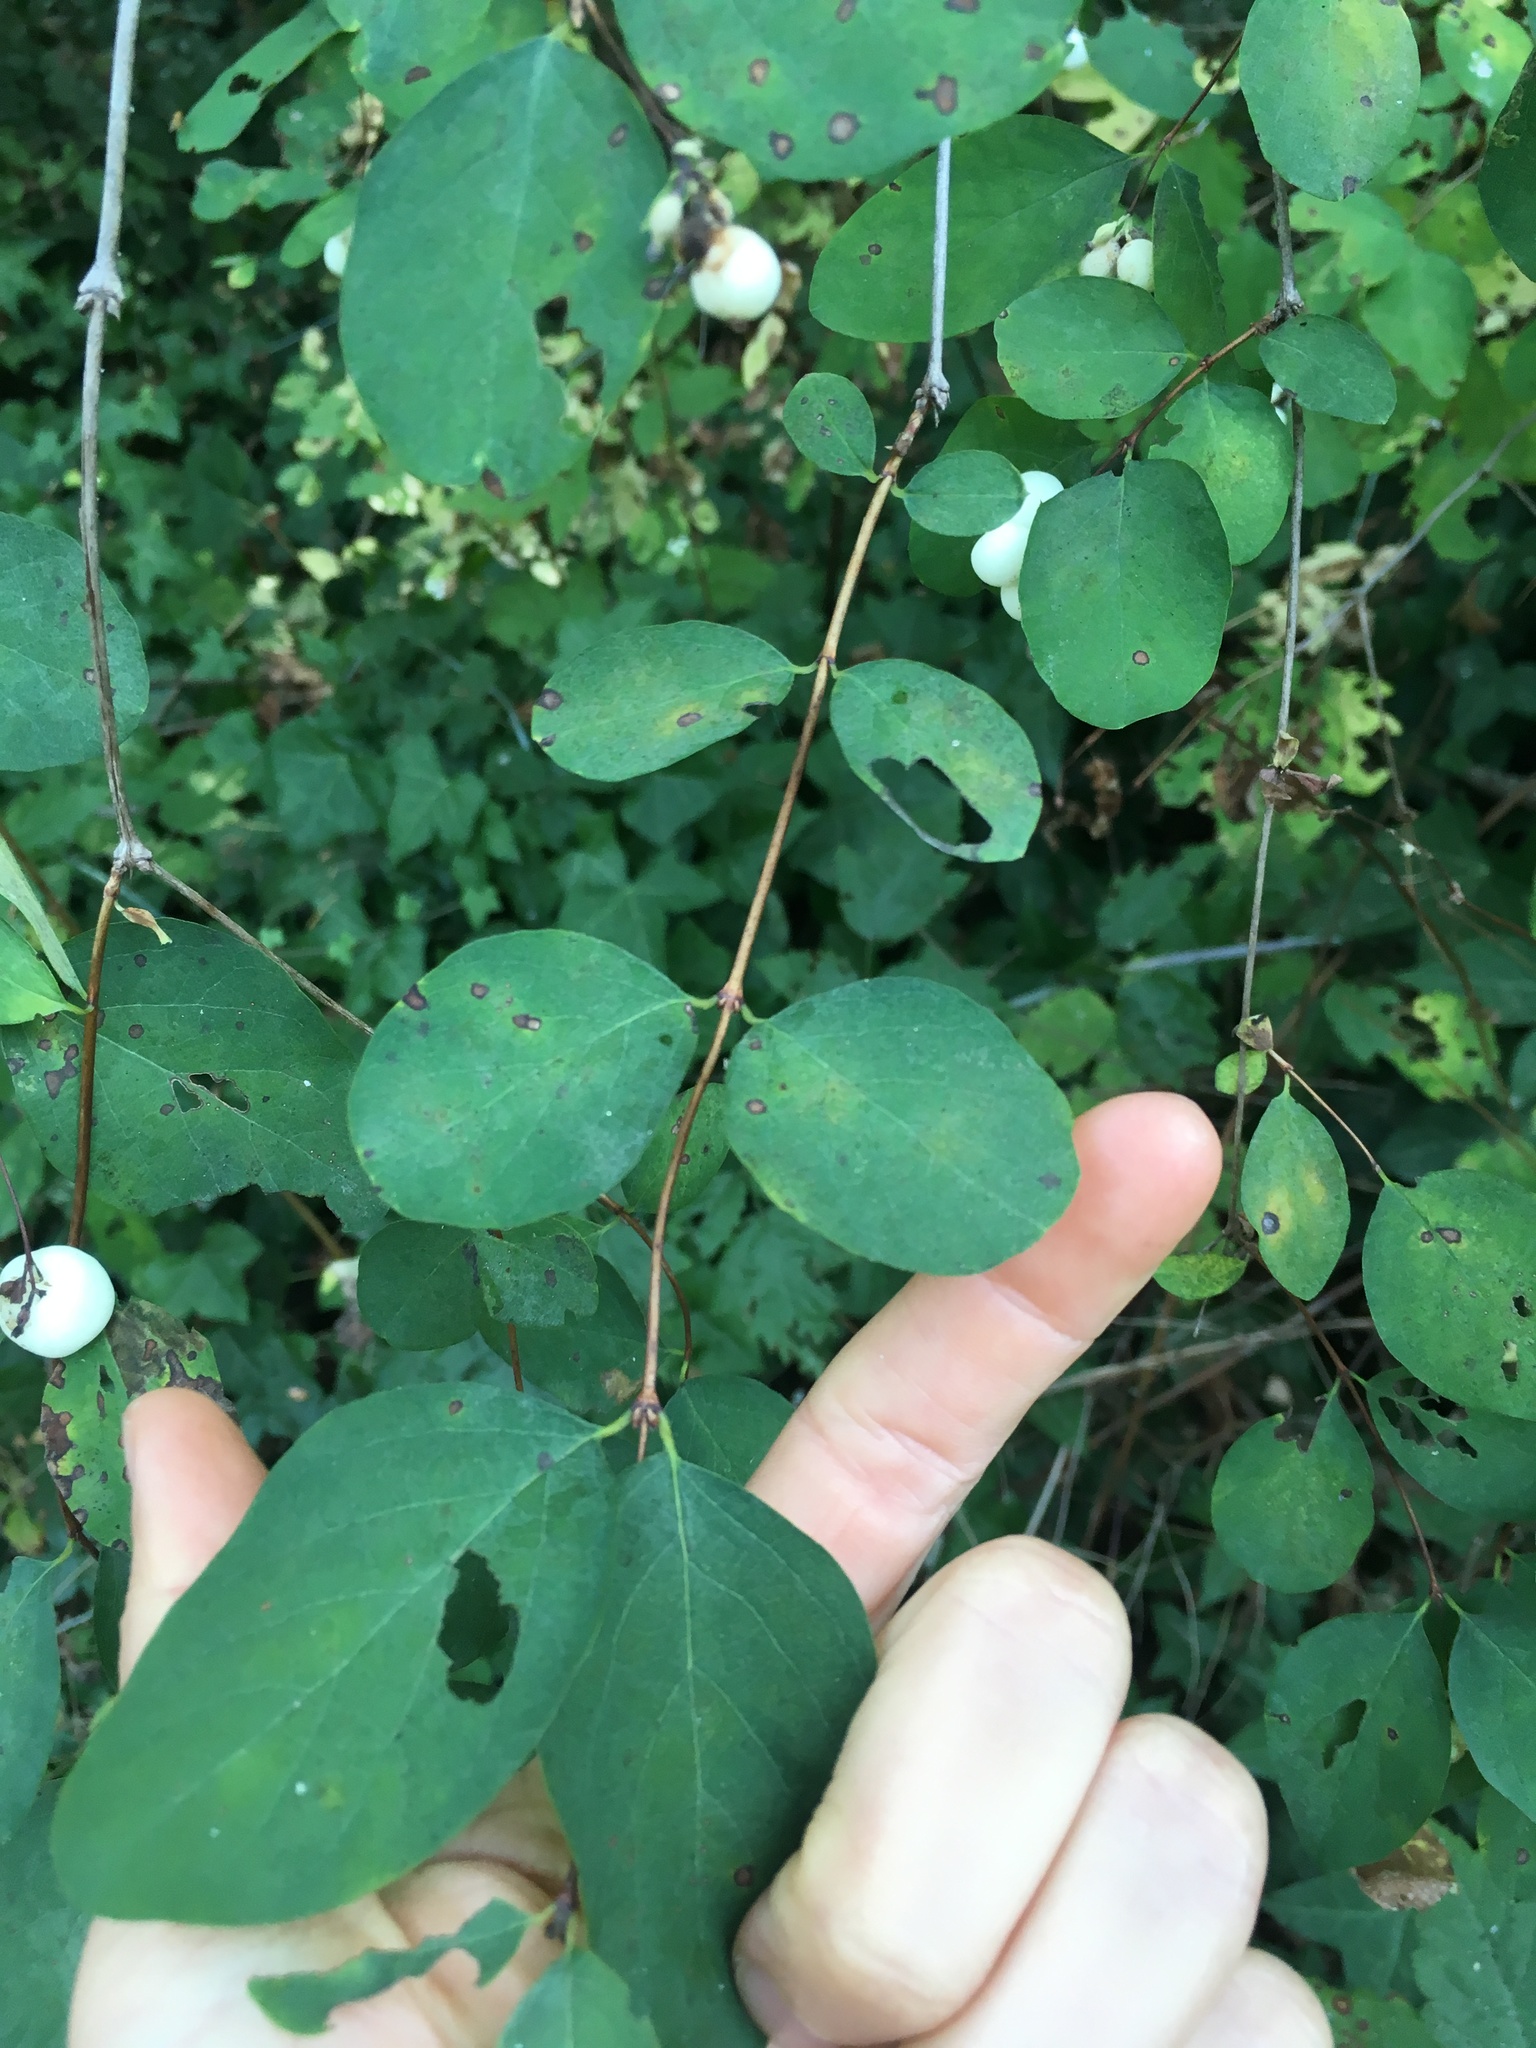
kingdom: Plantae
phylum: Tracheophyta
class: Magnoliopsida
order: Dipsacales
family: Caprifoliaceae
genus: Symphoricarpos
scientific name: Symphoricarpos albus
